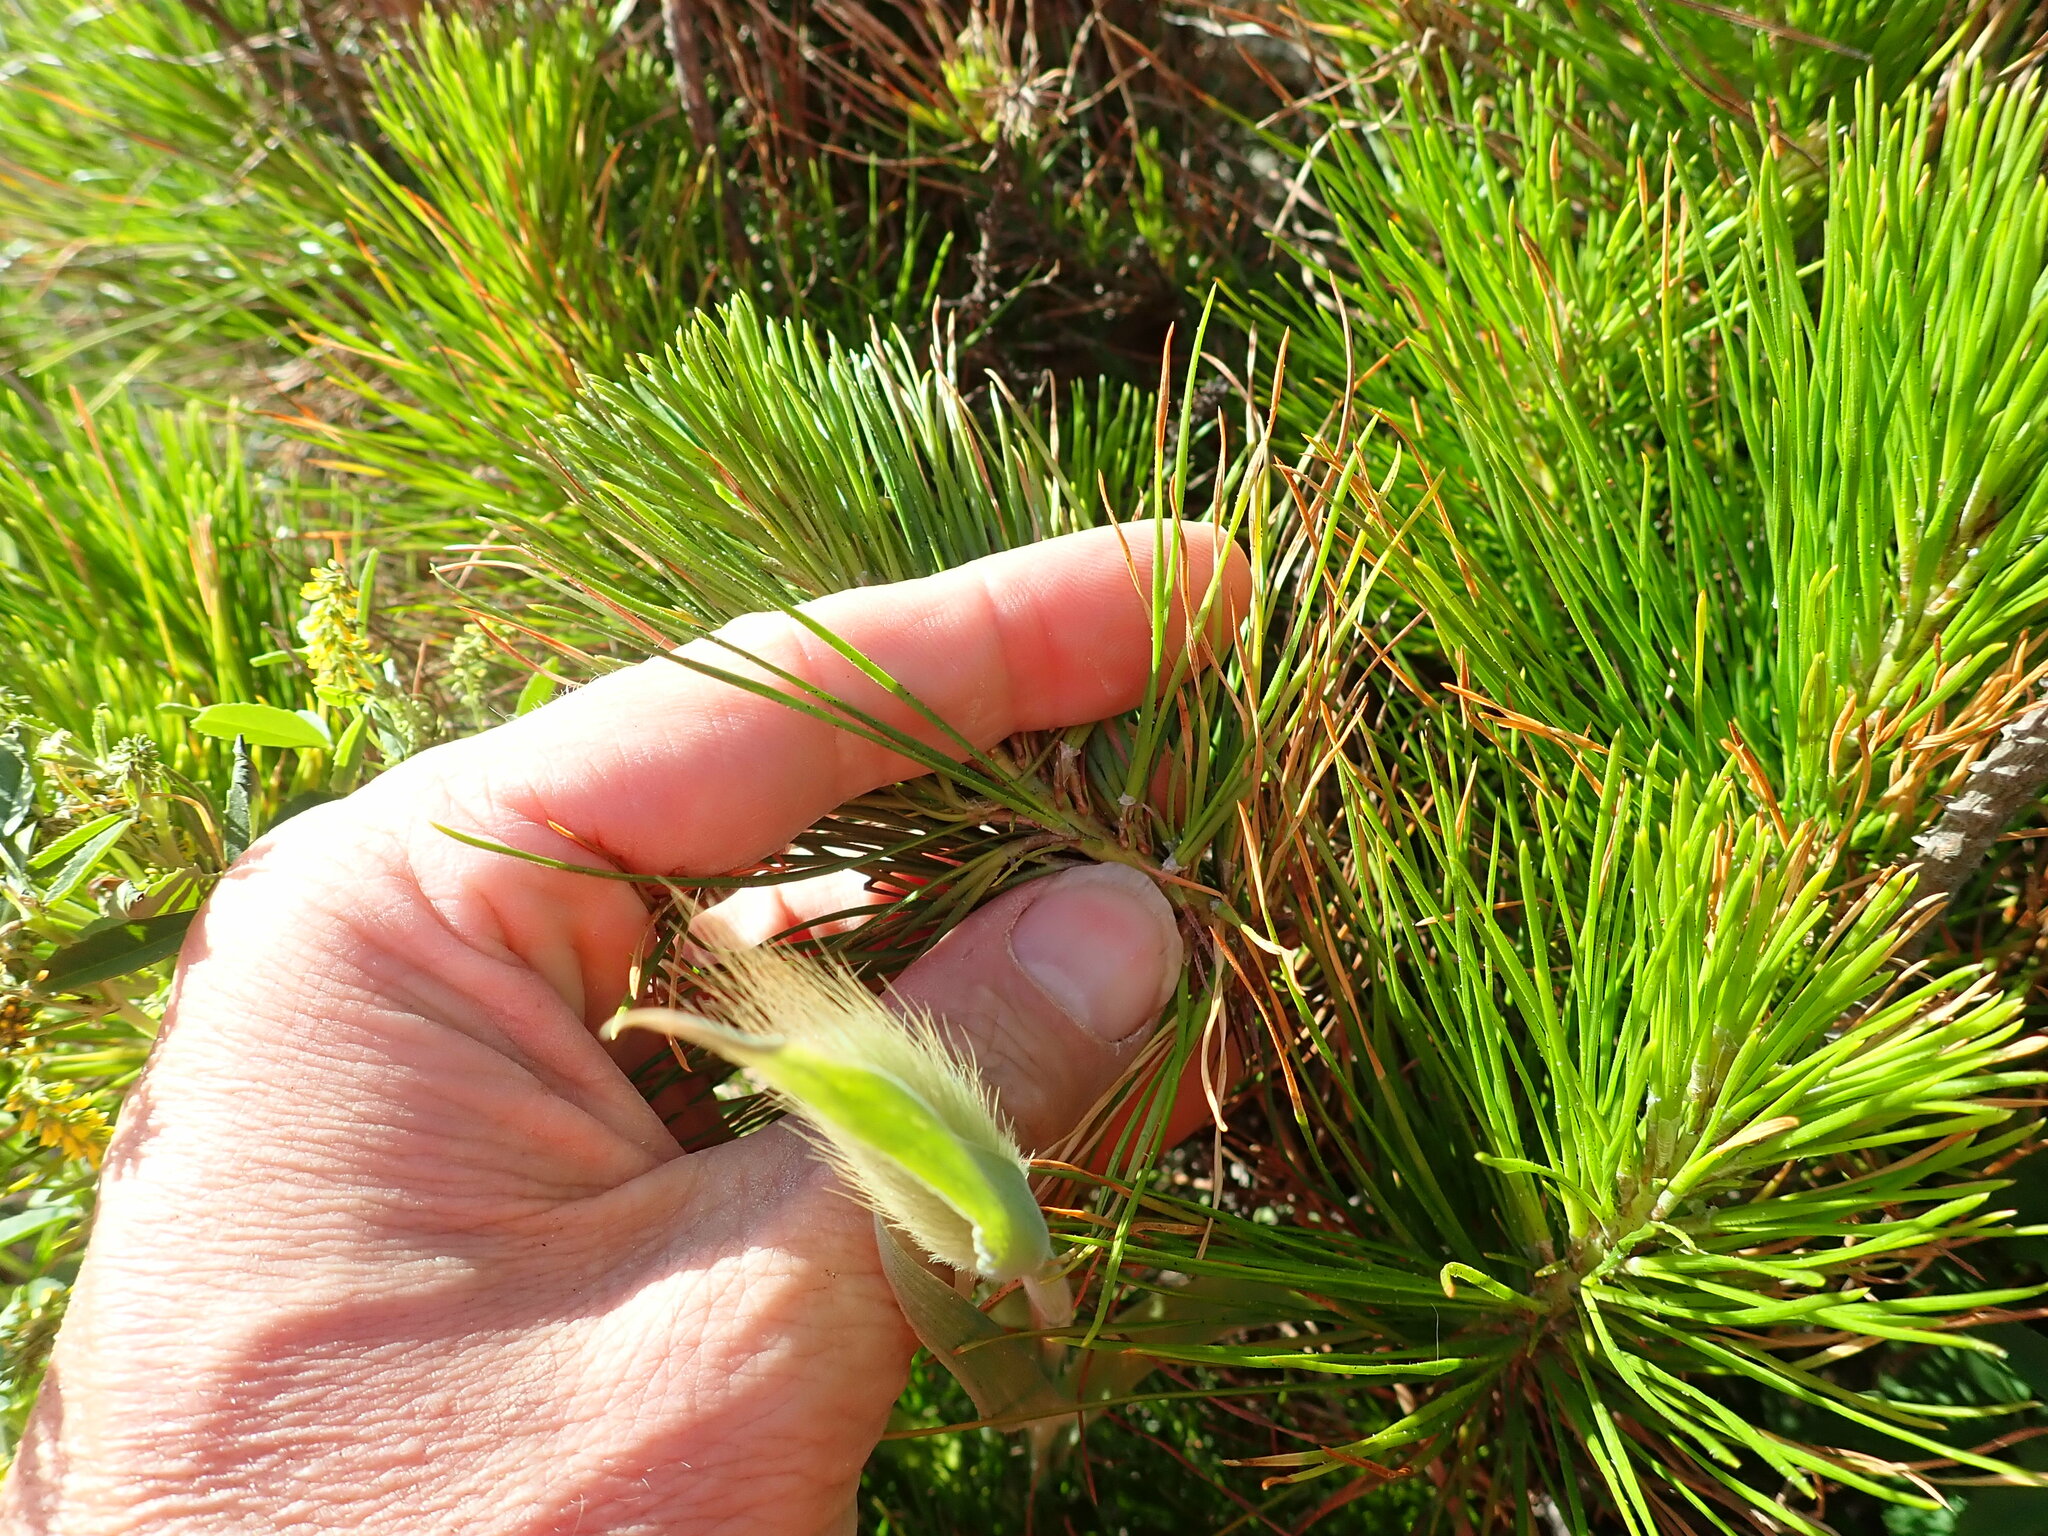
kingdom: Plantae
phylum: Tracheophyta
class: Pinopsida
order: Pinales
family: Pinaceae
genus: Pinus
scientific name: Pinus radiata
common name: Monterey pine
